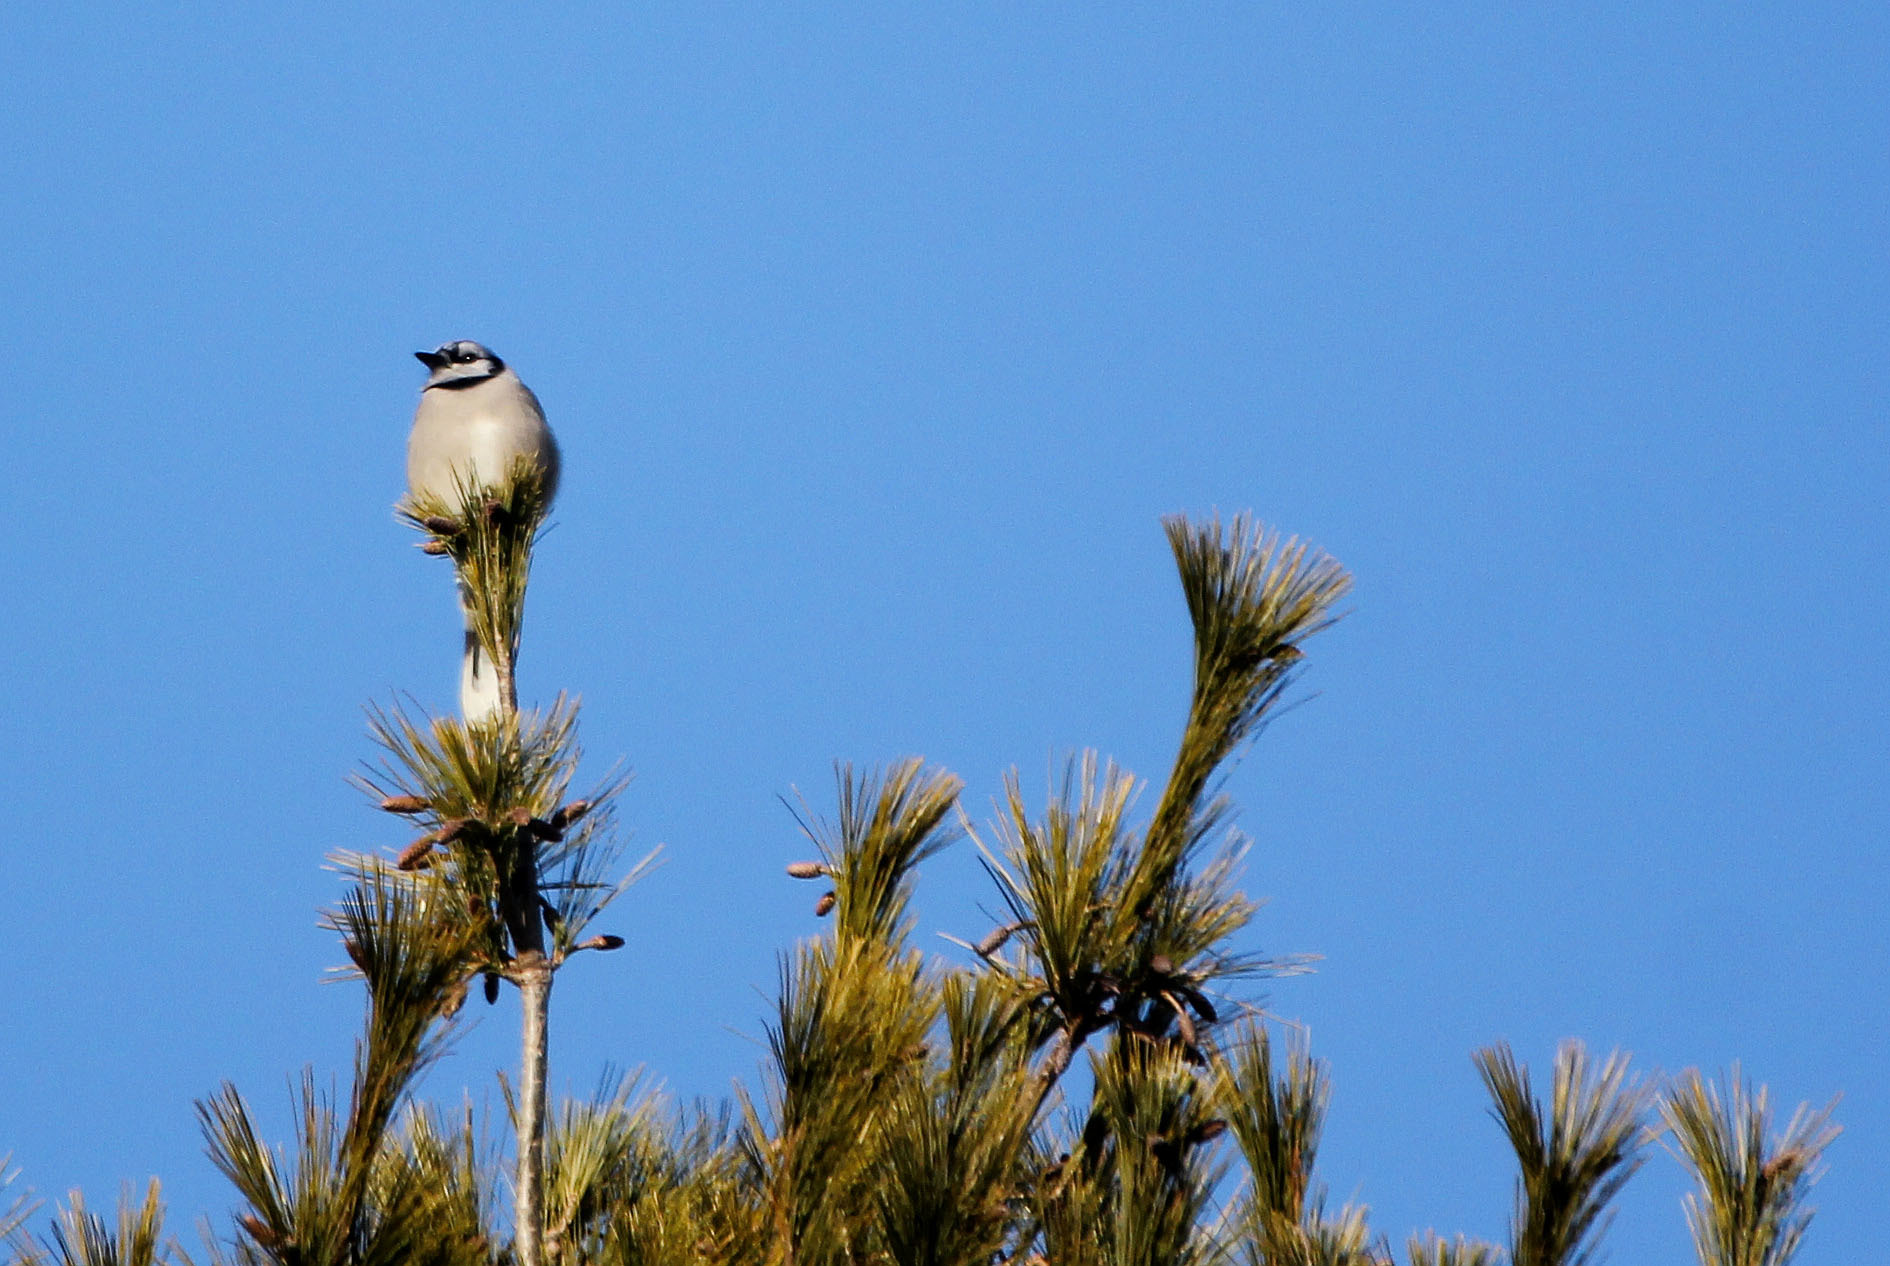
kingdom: Animalia
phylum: Chordata
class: Aves
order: Passeriformes
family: Corvidae
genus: Cyanocitta
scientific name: Cyanocitta cristata
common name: Blue jay
